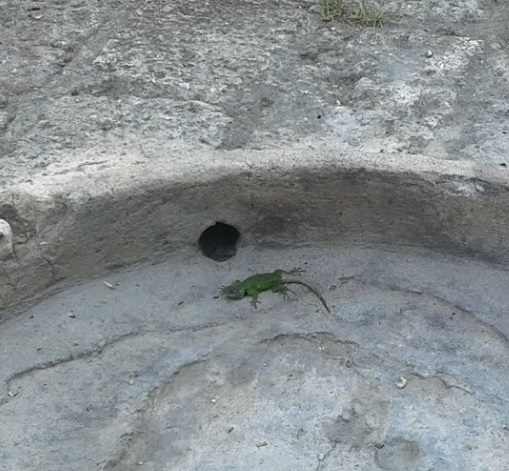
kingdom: Animalia
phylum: Chordata
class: Squamata
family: Phrynosomatidae
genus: Sceloporus
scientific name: Sceloporus hondurensis
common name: Honduran spiny lizard
